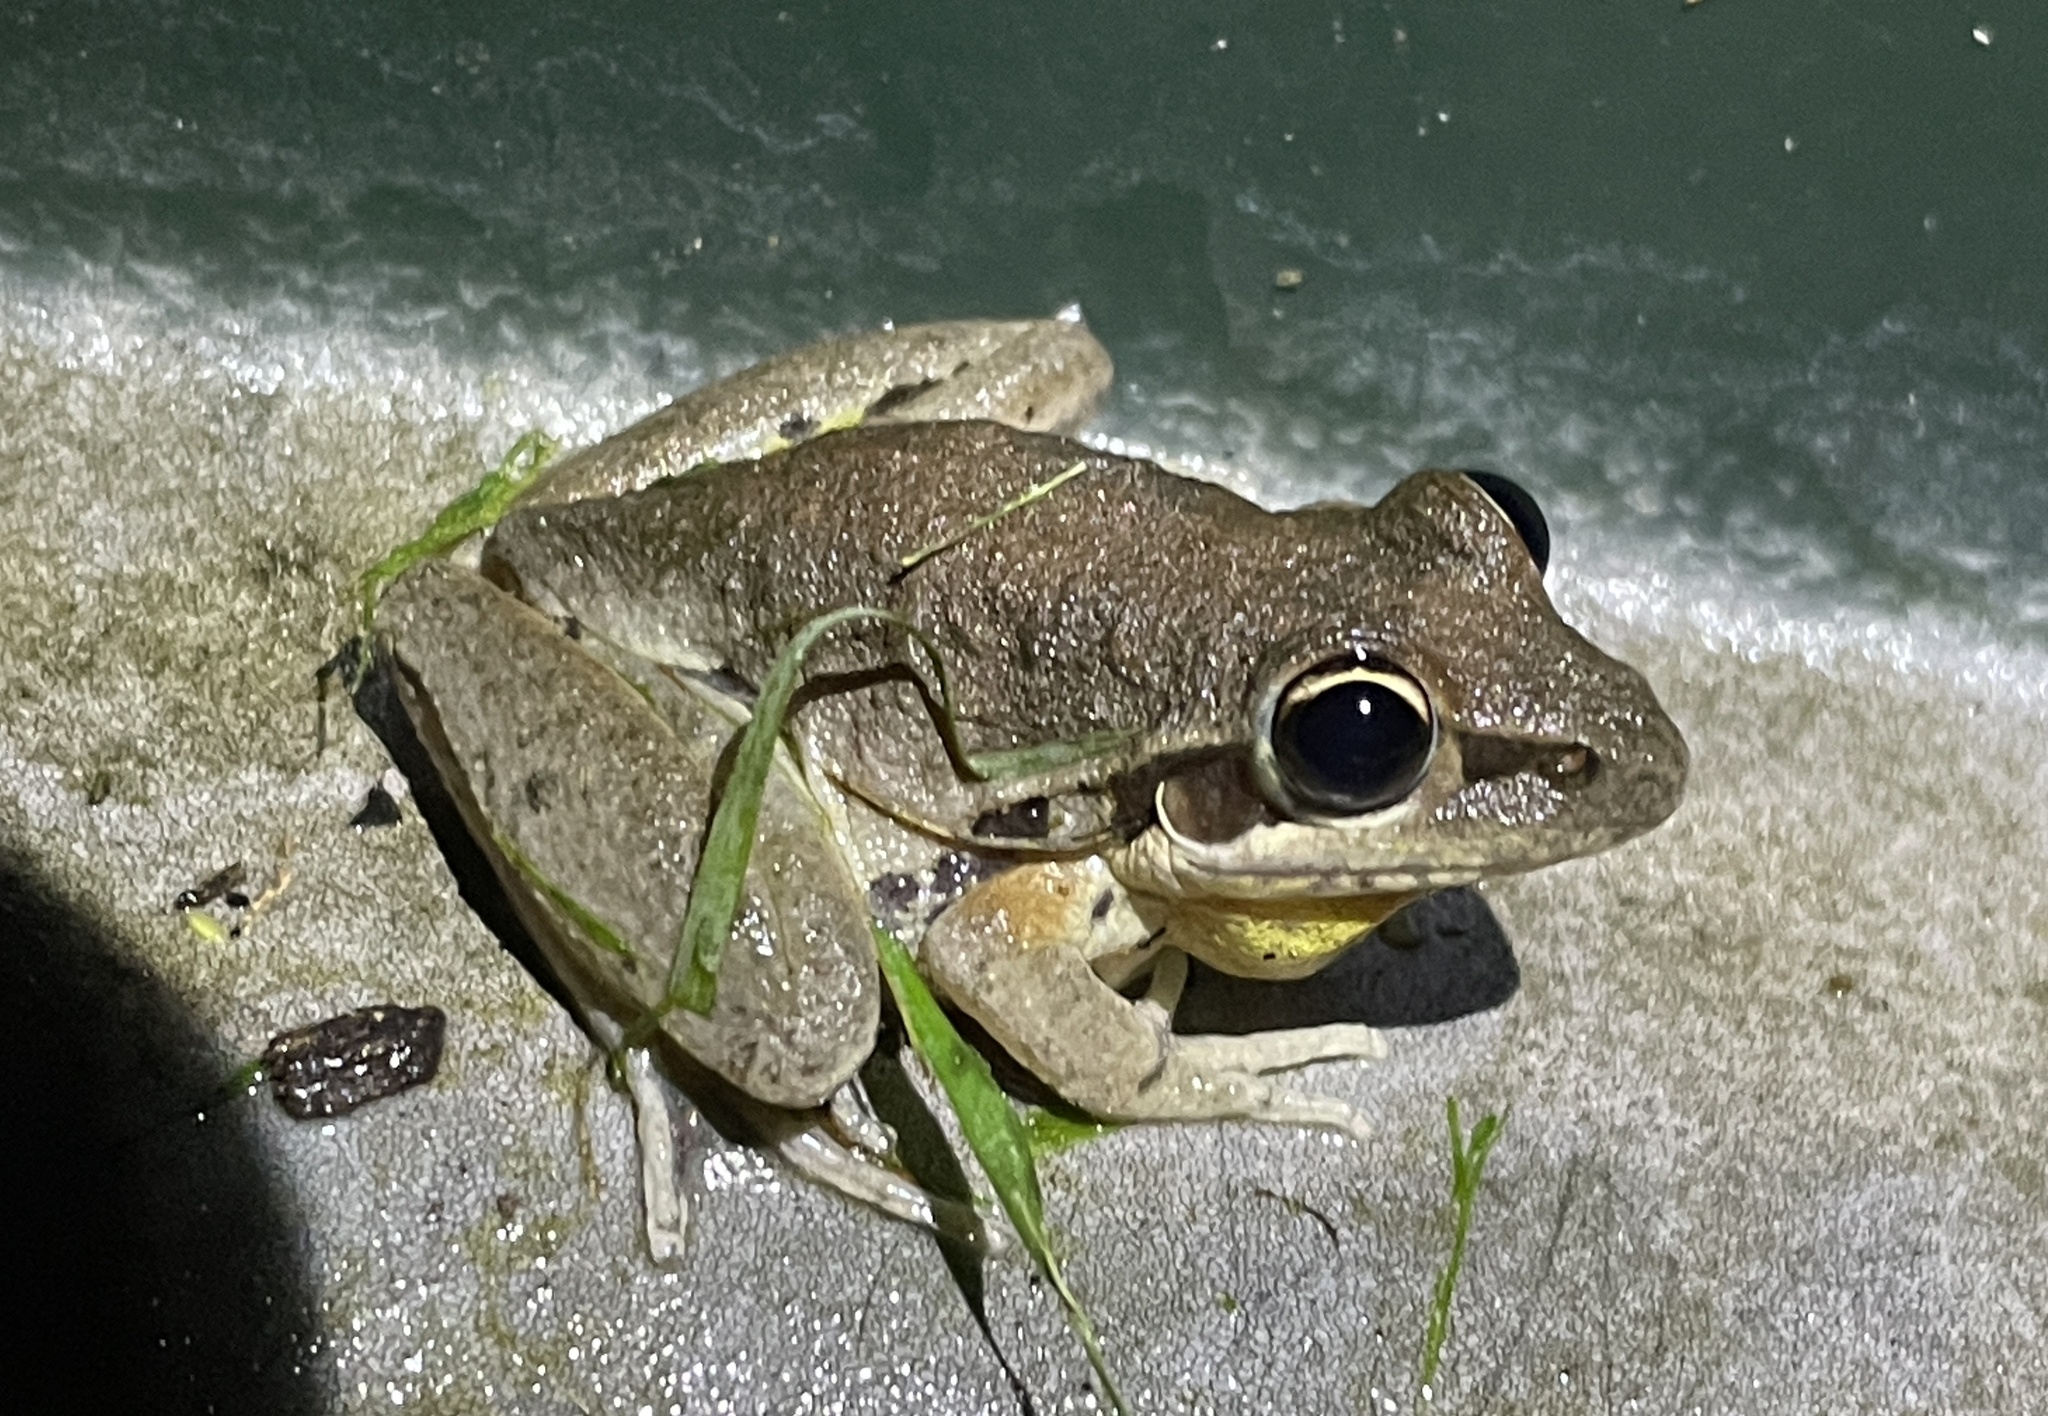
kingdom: Animalia
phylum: Chordata
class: Amphibia
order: Anura
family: Pelodryadidae
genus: Litoria
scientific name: Litoria latopalmata
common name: Broad-palmed rocket frog
